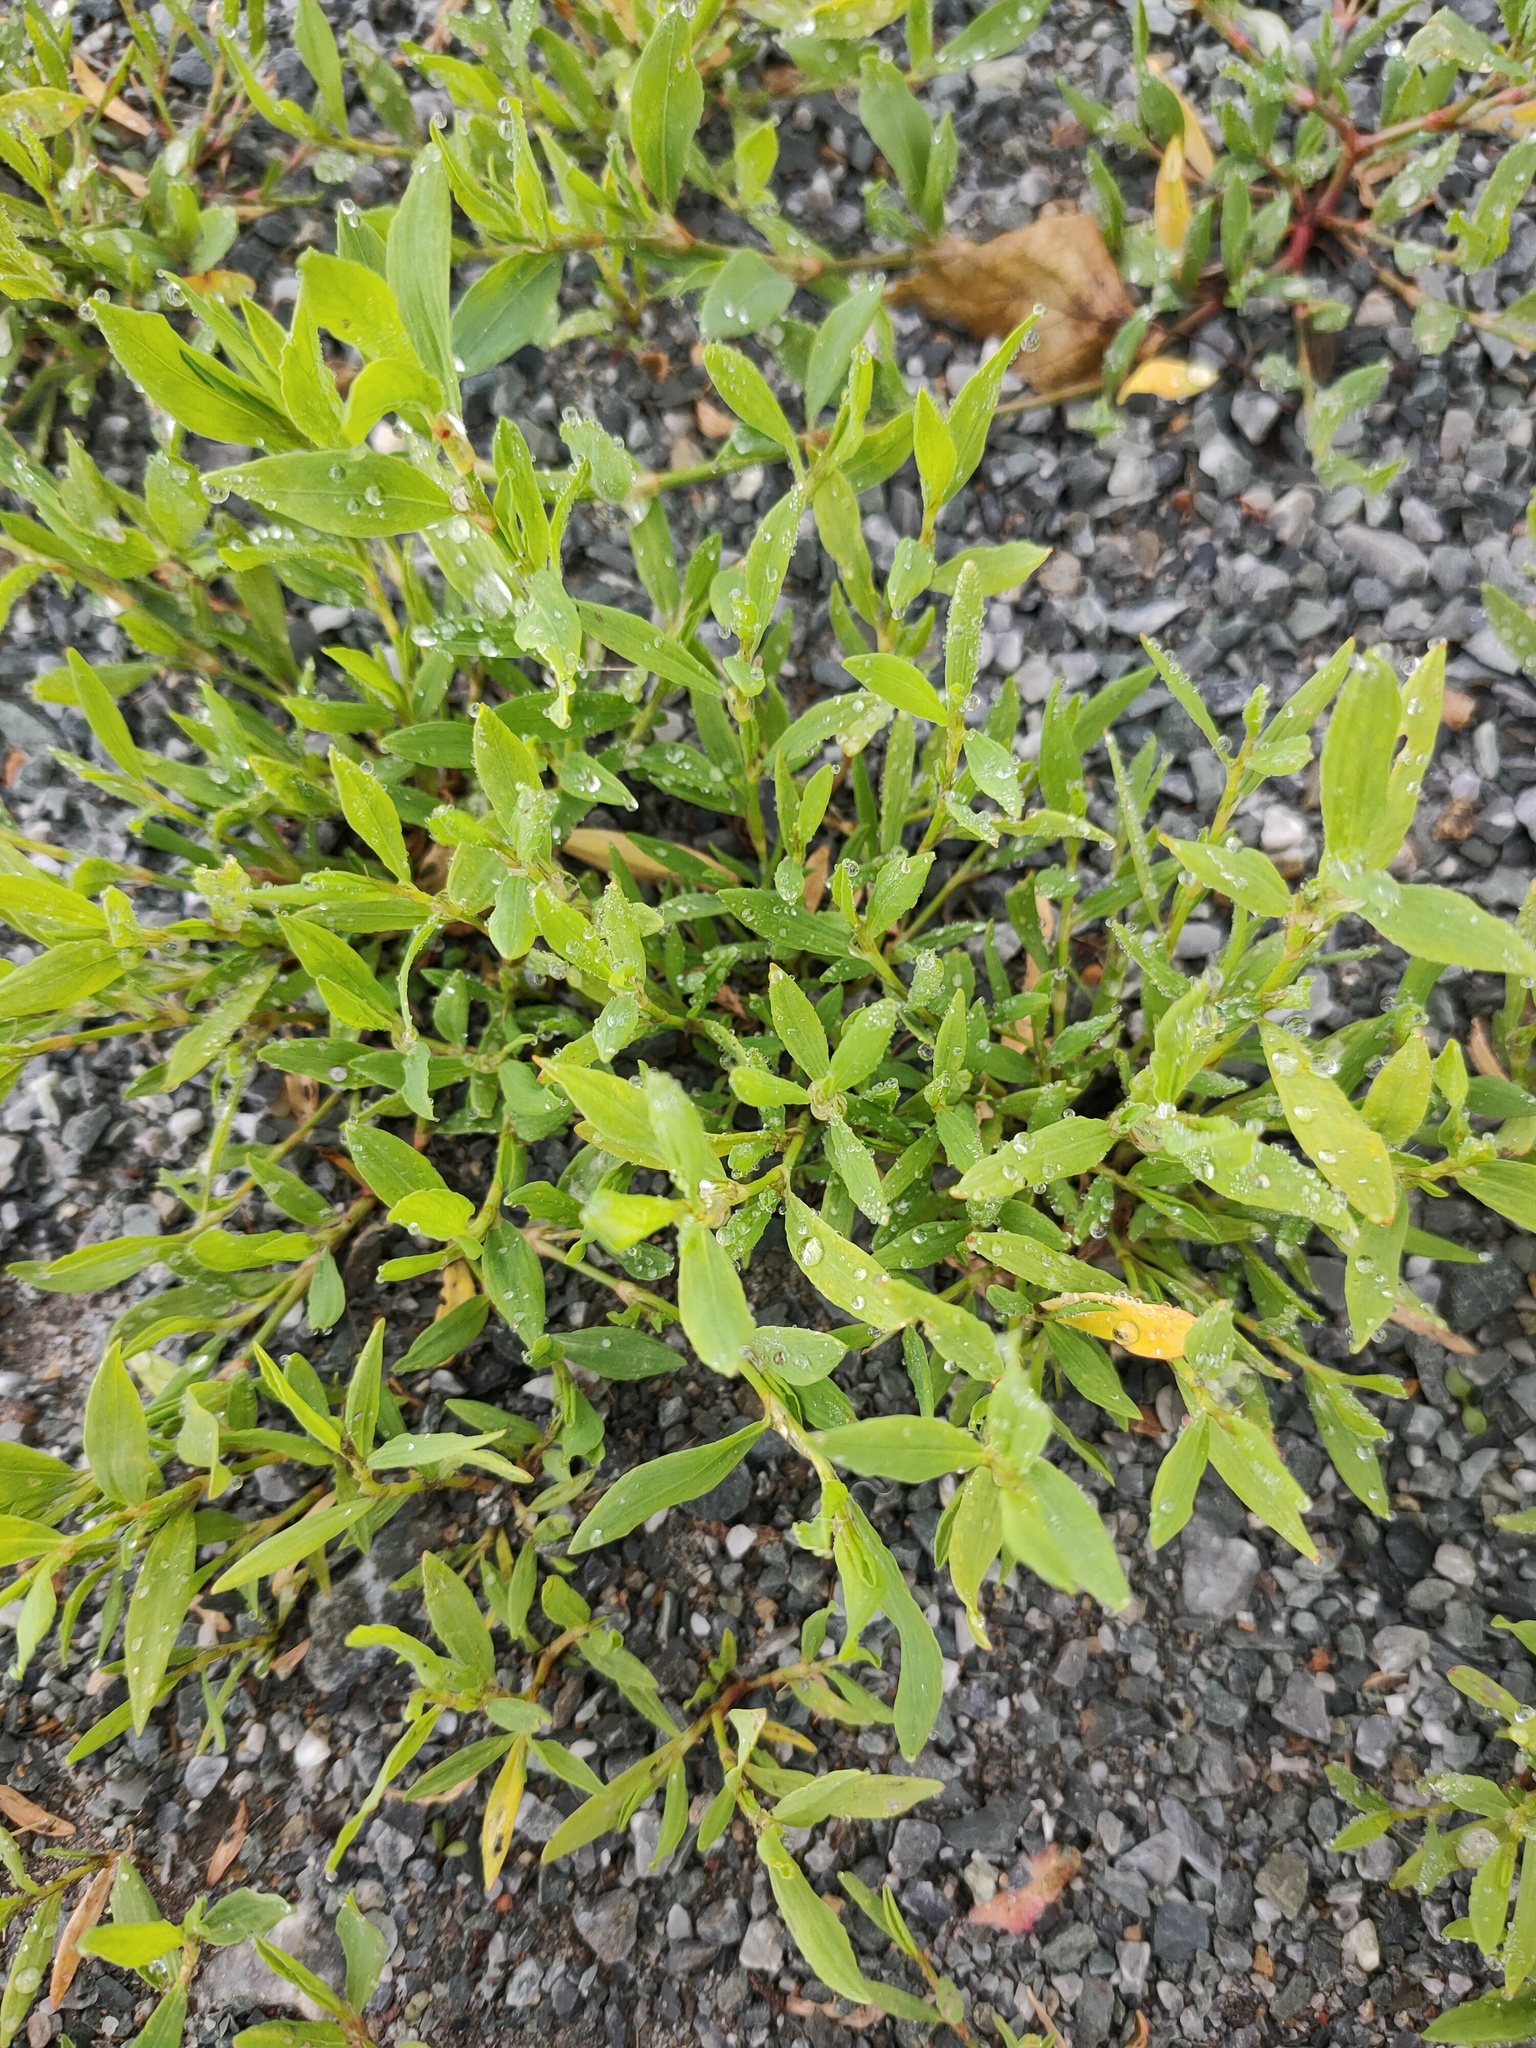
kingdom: Plantae
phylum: Tracheophyta
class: Magnoliopsida
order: Caryophyllales
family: Polygonaceae
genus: Polygonum
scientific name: Polygonum
